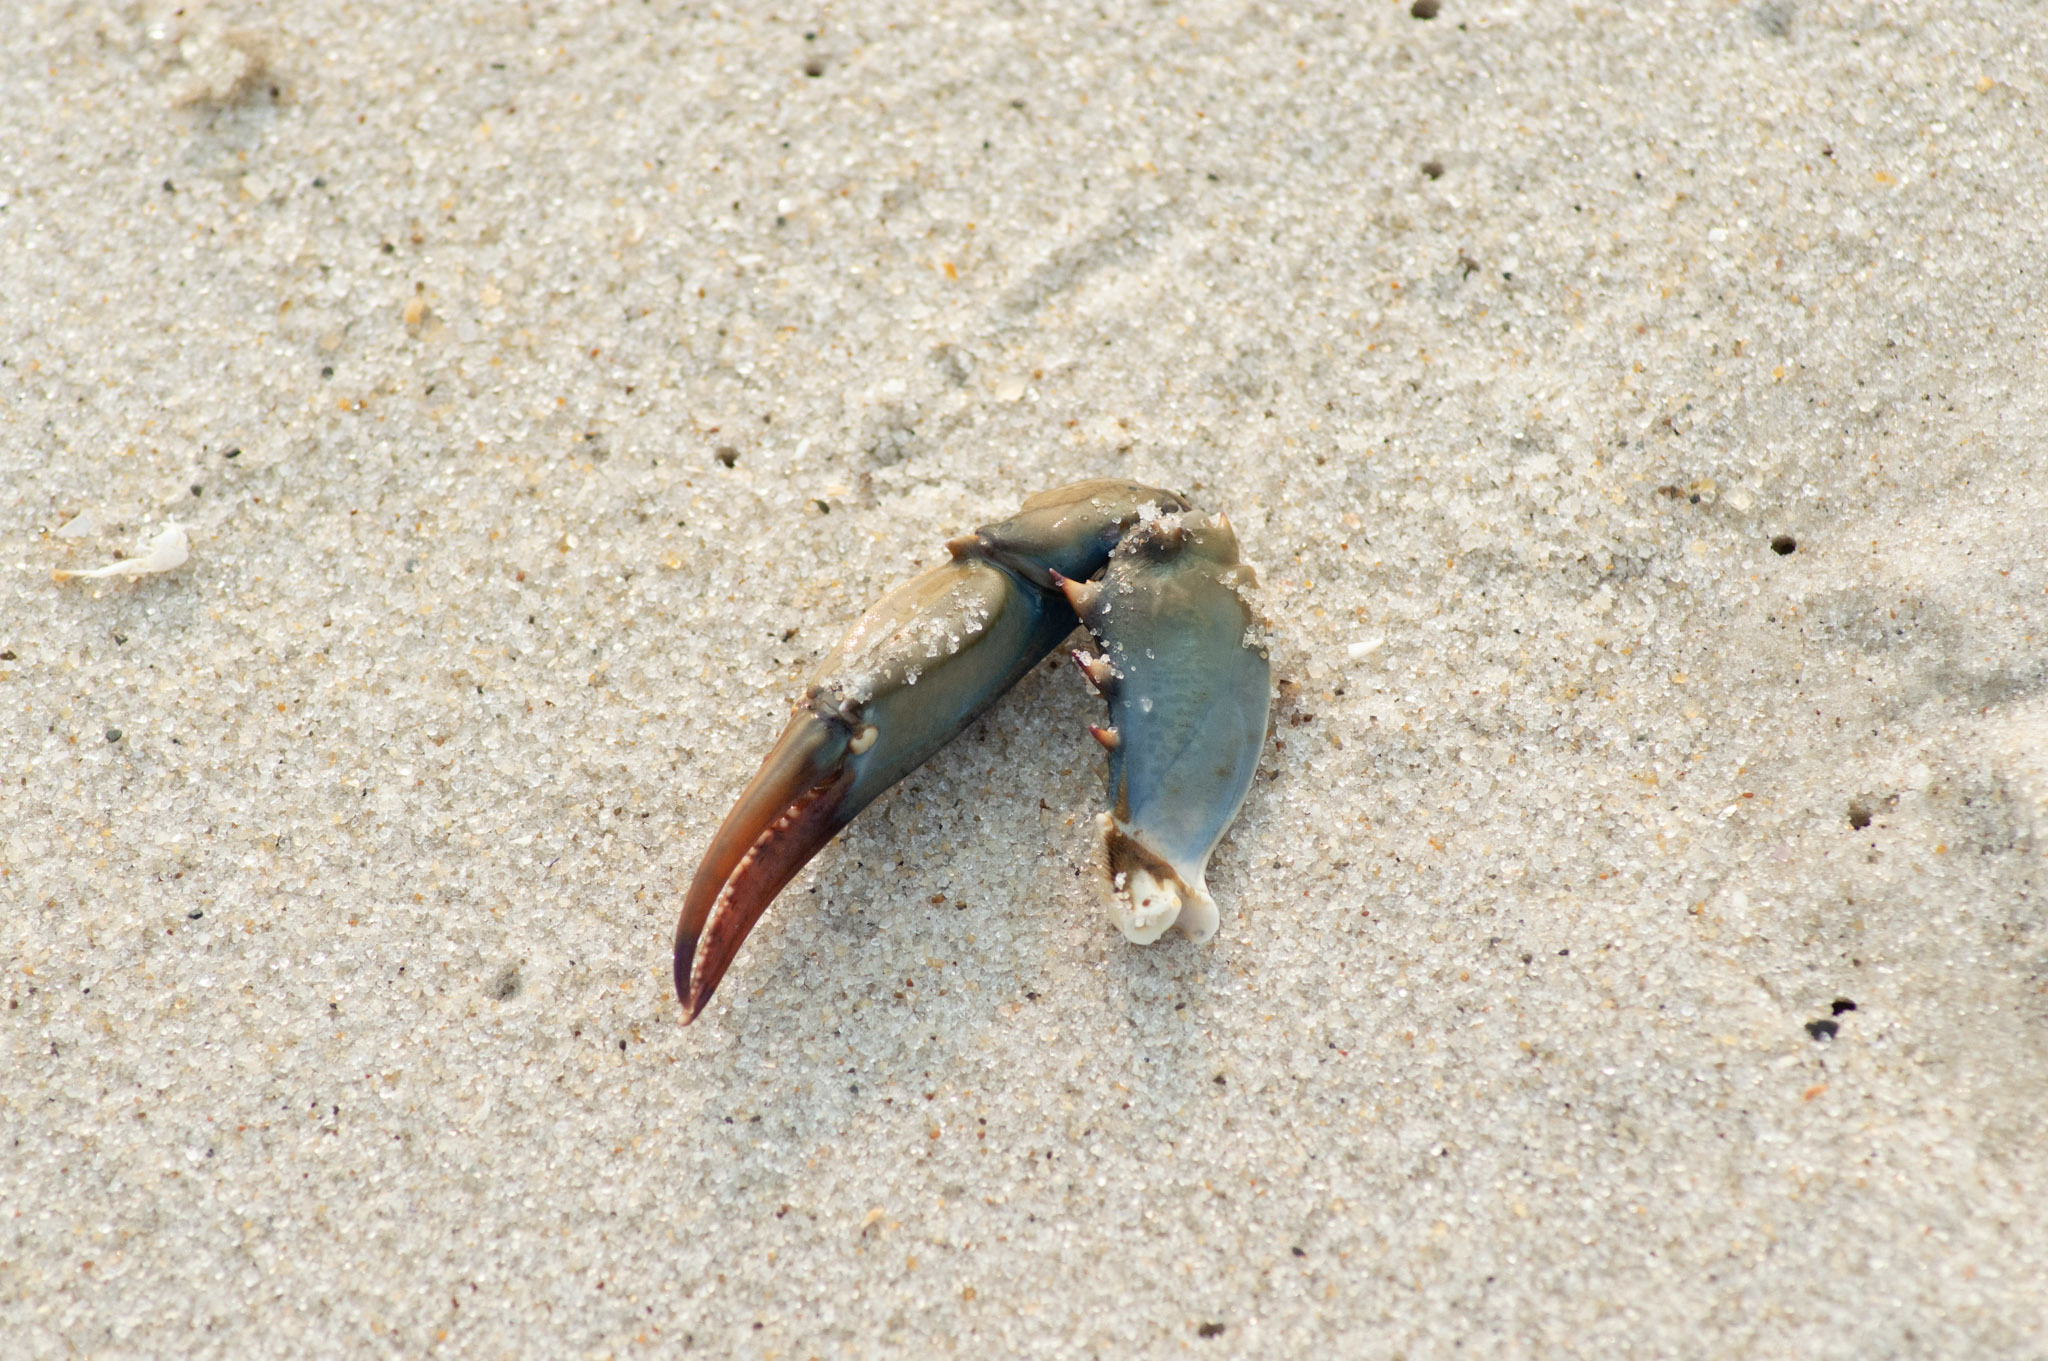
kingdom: Animalia
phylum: Arthropoda
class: Malacostraca
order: Decapoda
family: Portunidae
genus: Callinectes
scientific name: Callinectes sapidus
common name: Blue crab
